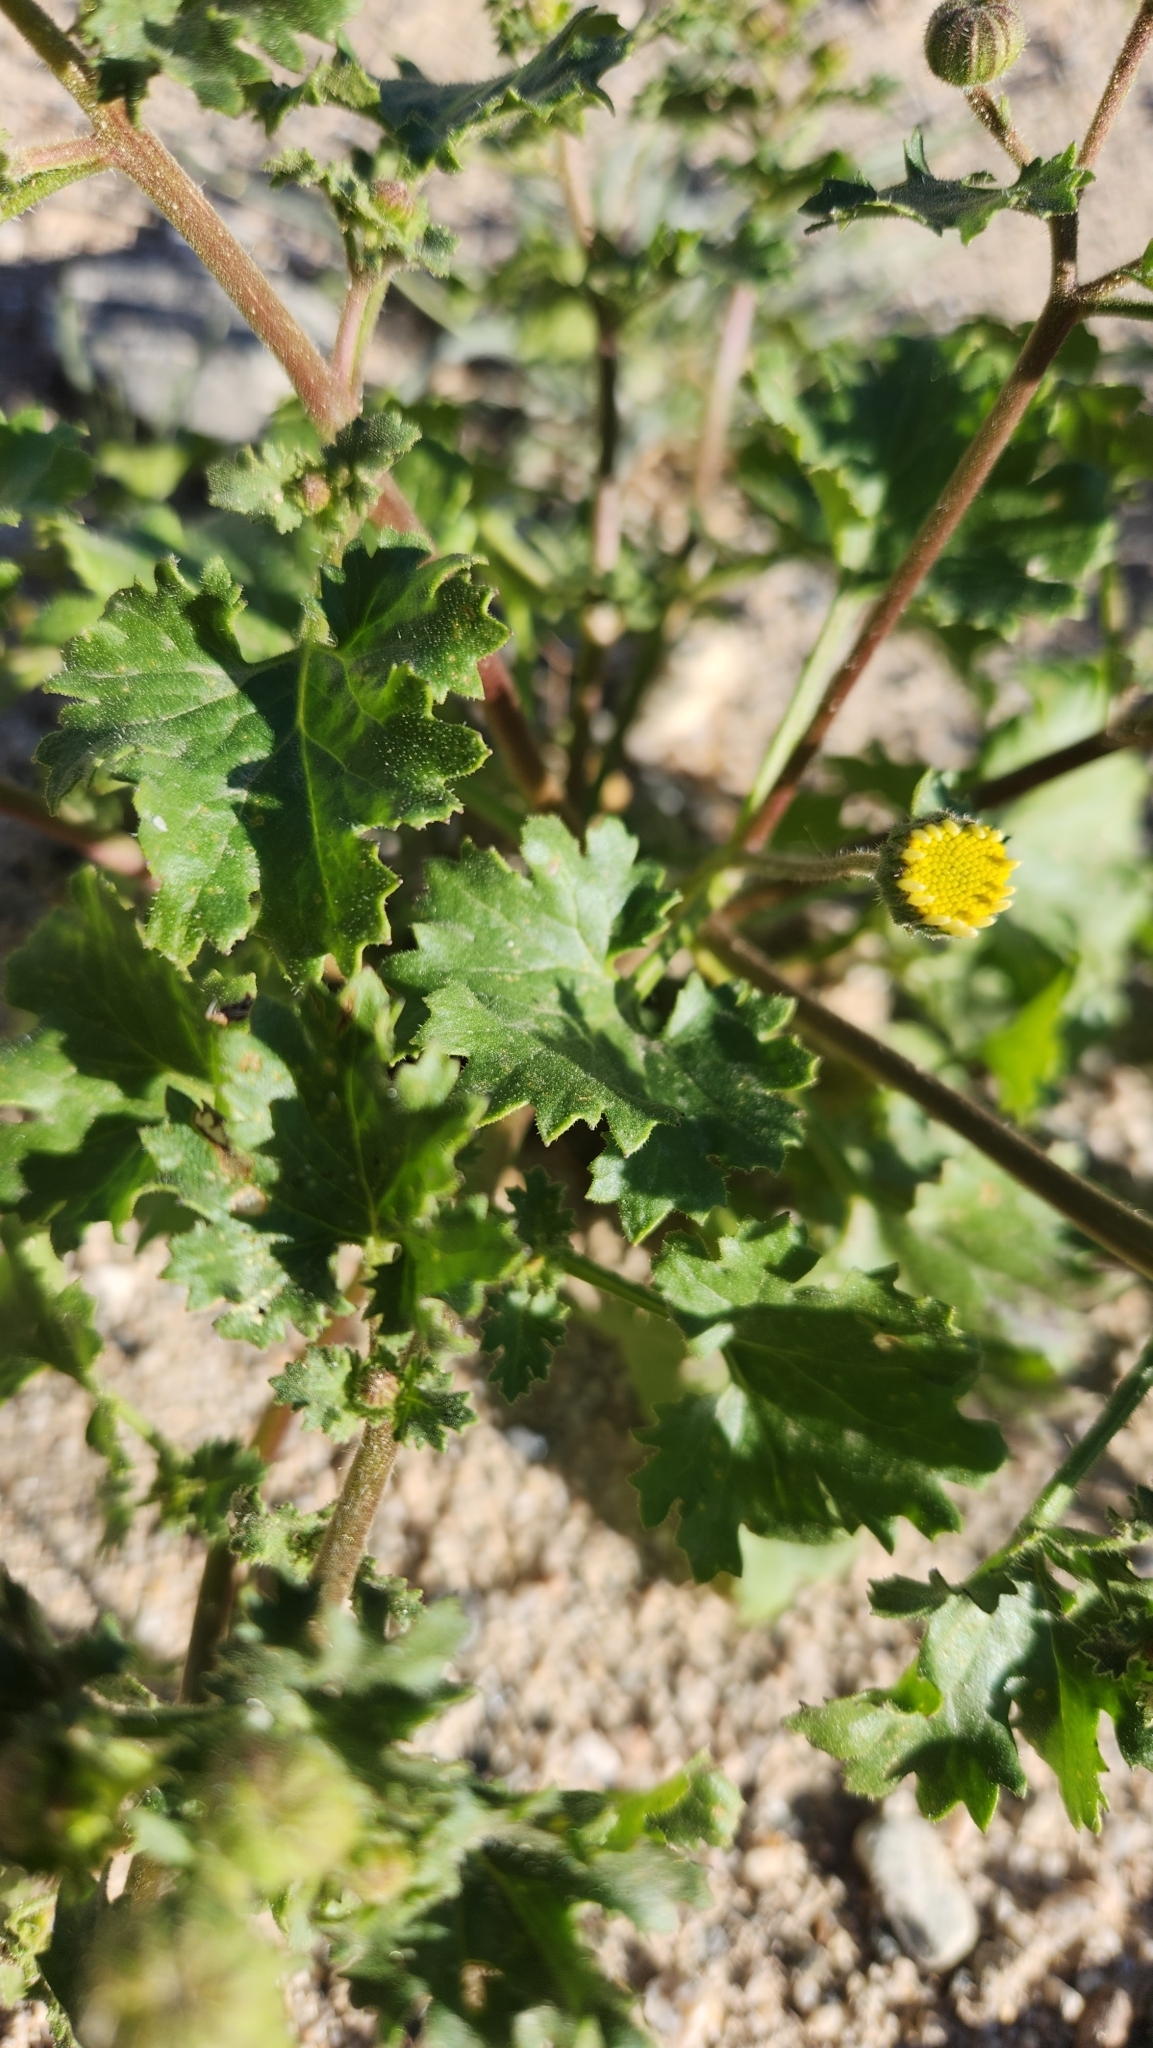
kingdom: Plantae
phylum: Tracheophyta
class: Magnoliopsida
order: Asterales
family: Asteraceae
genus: Laphamia
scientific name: Laphamia emoryi
